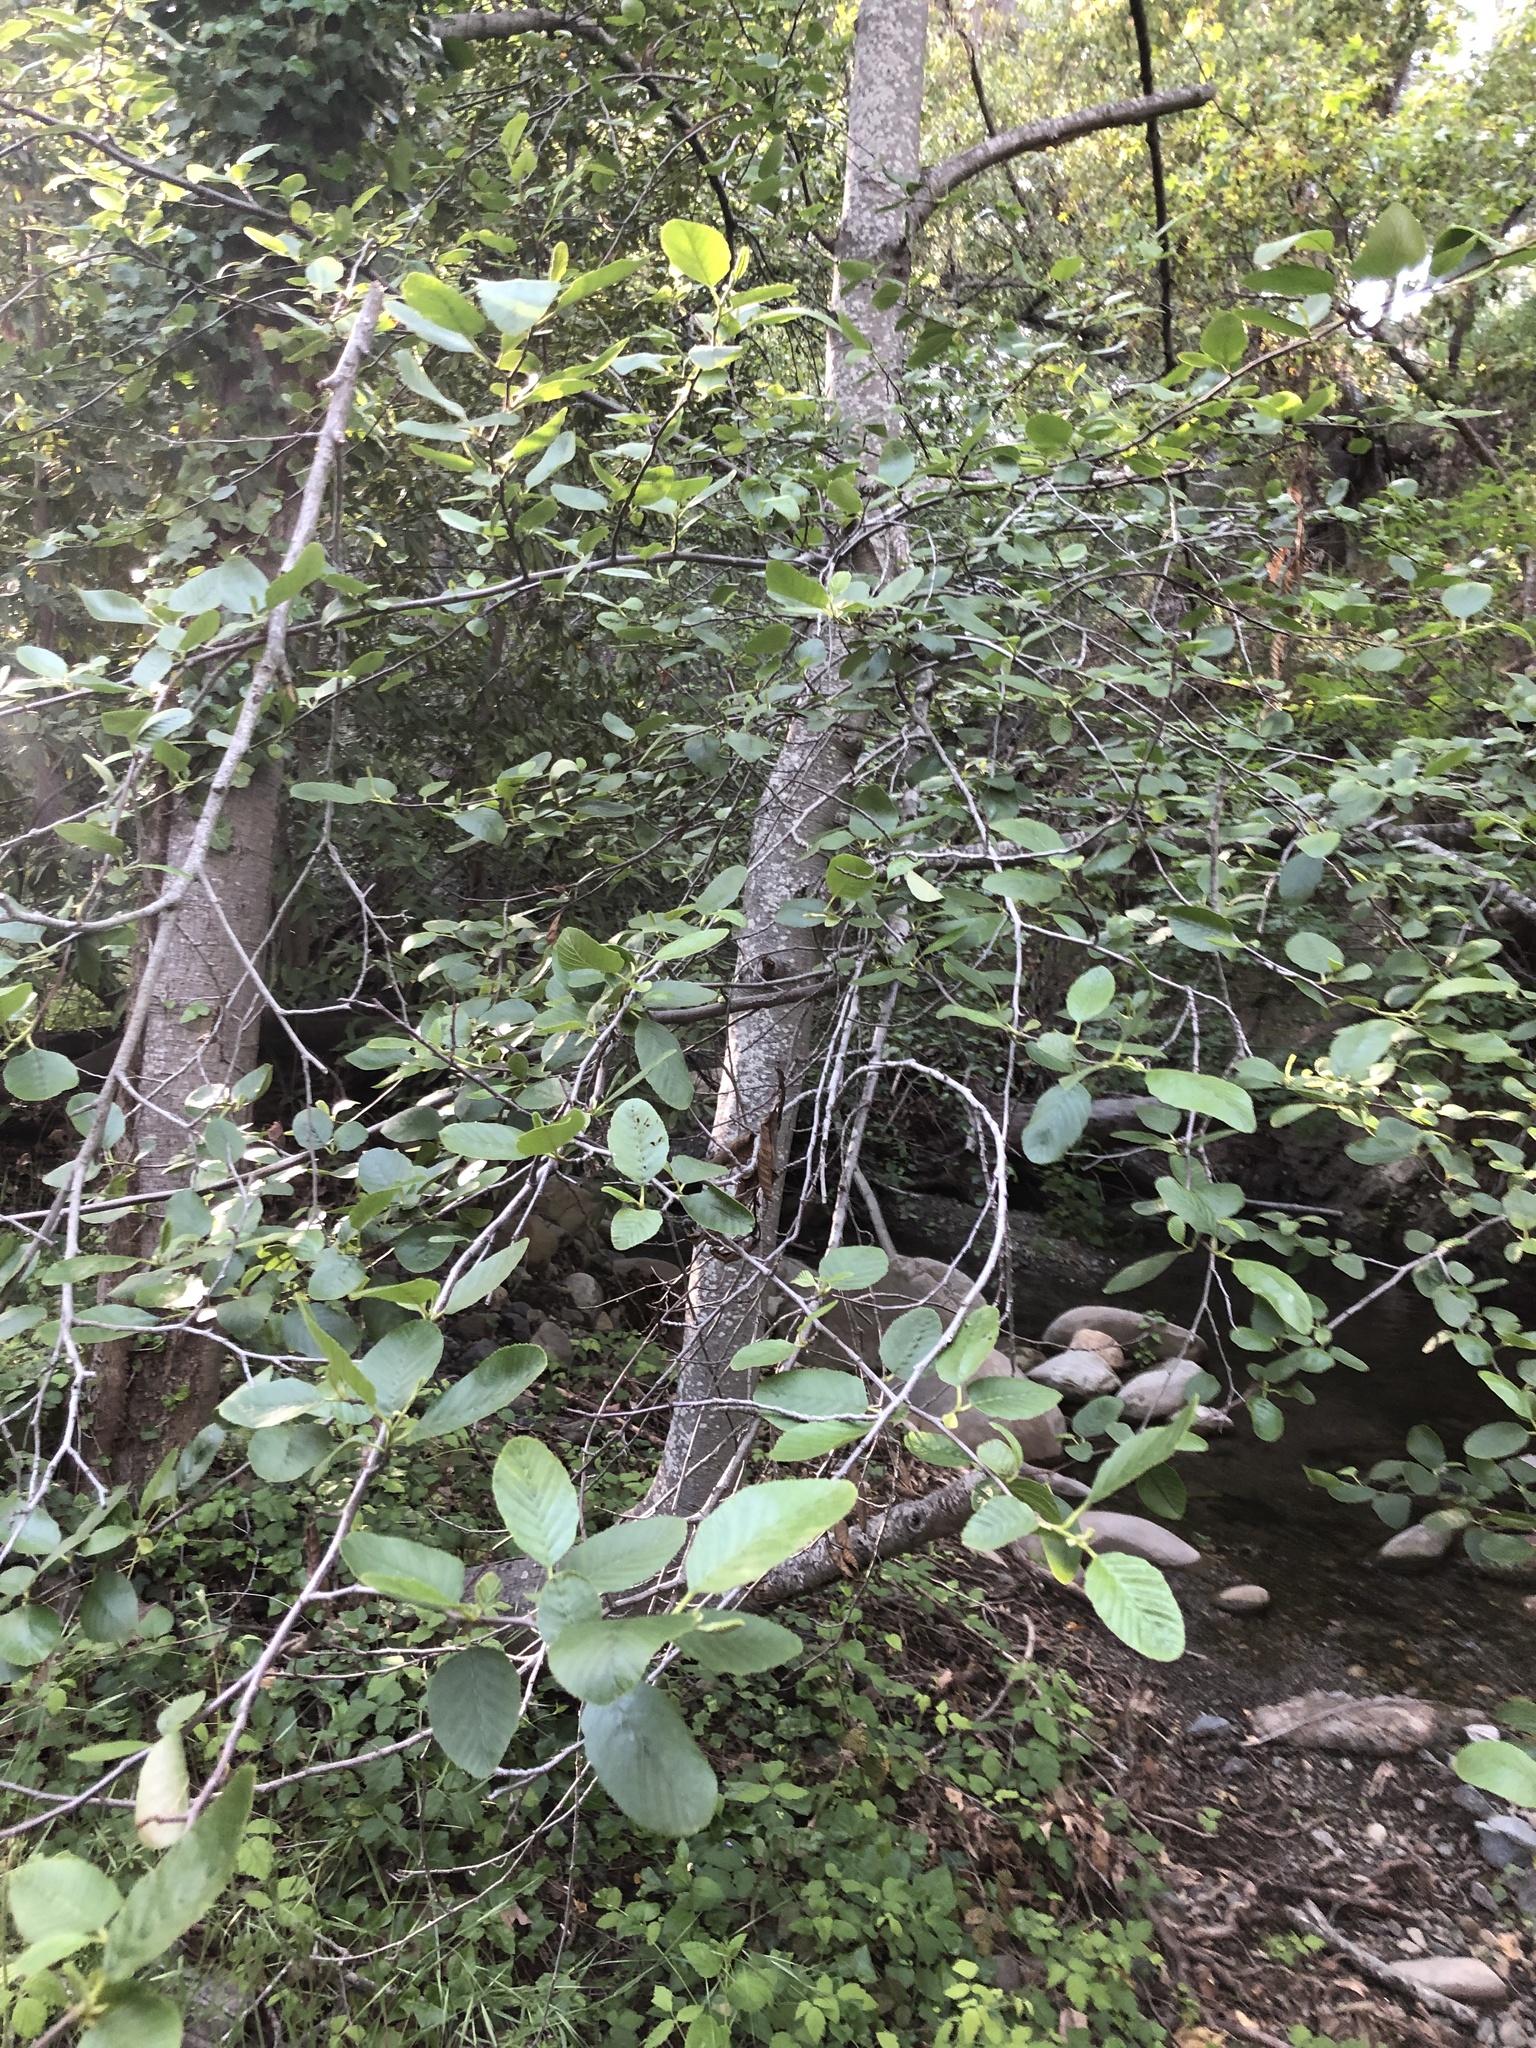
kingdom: Plantae
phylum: Tracheophyta
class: Magnoliopsida
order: Fagales
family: Betulaceae
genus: Alnus
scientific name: Alnus rhombifolia
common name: California alder
